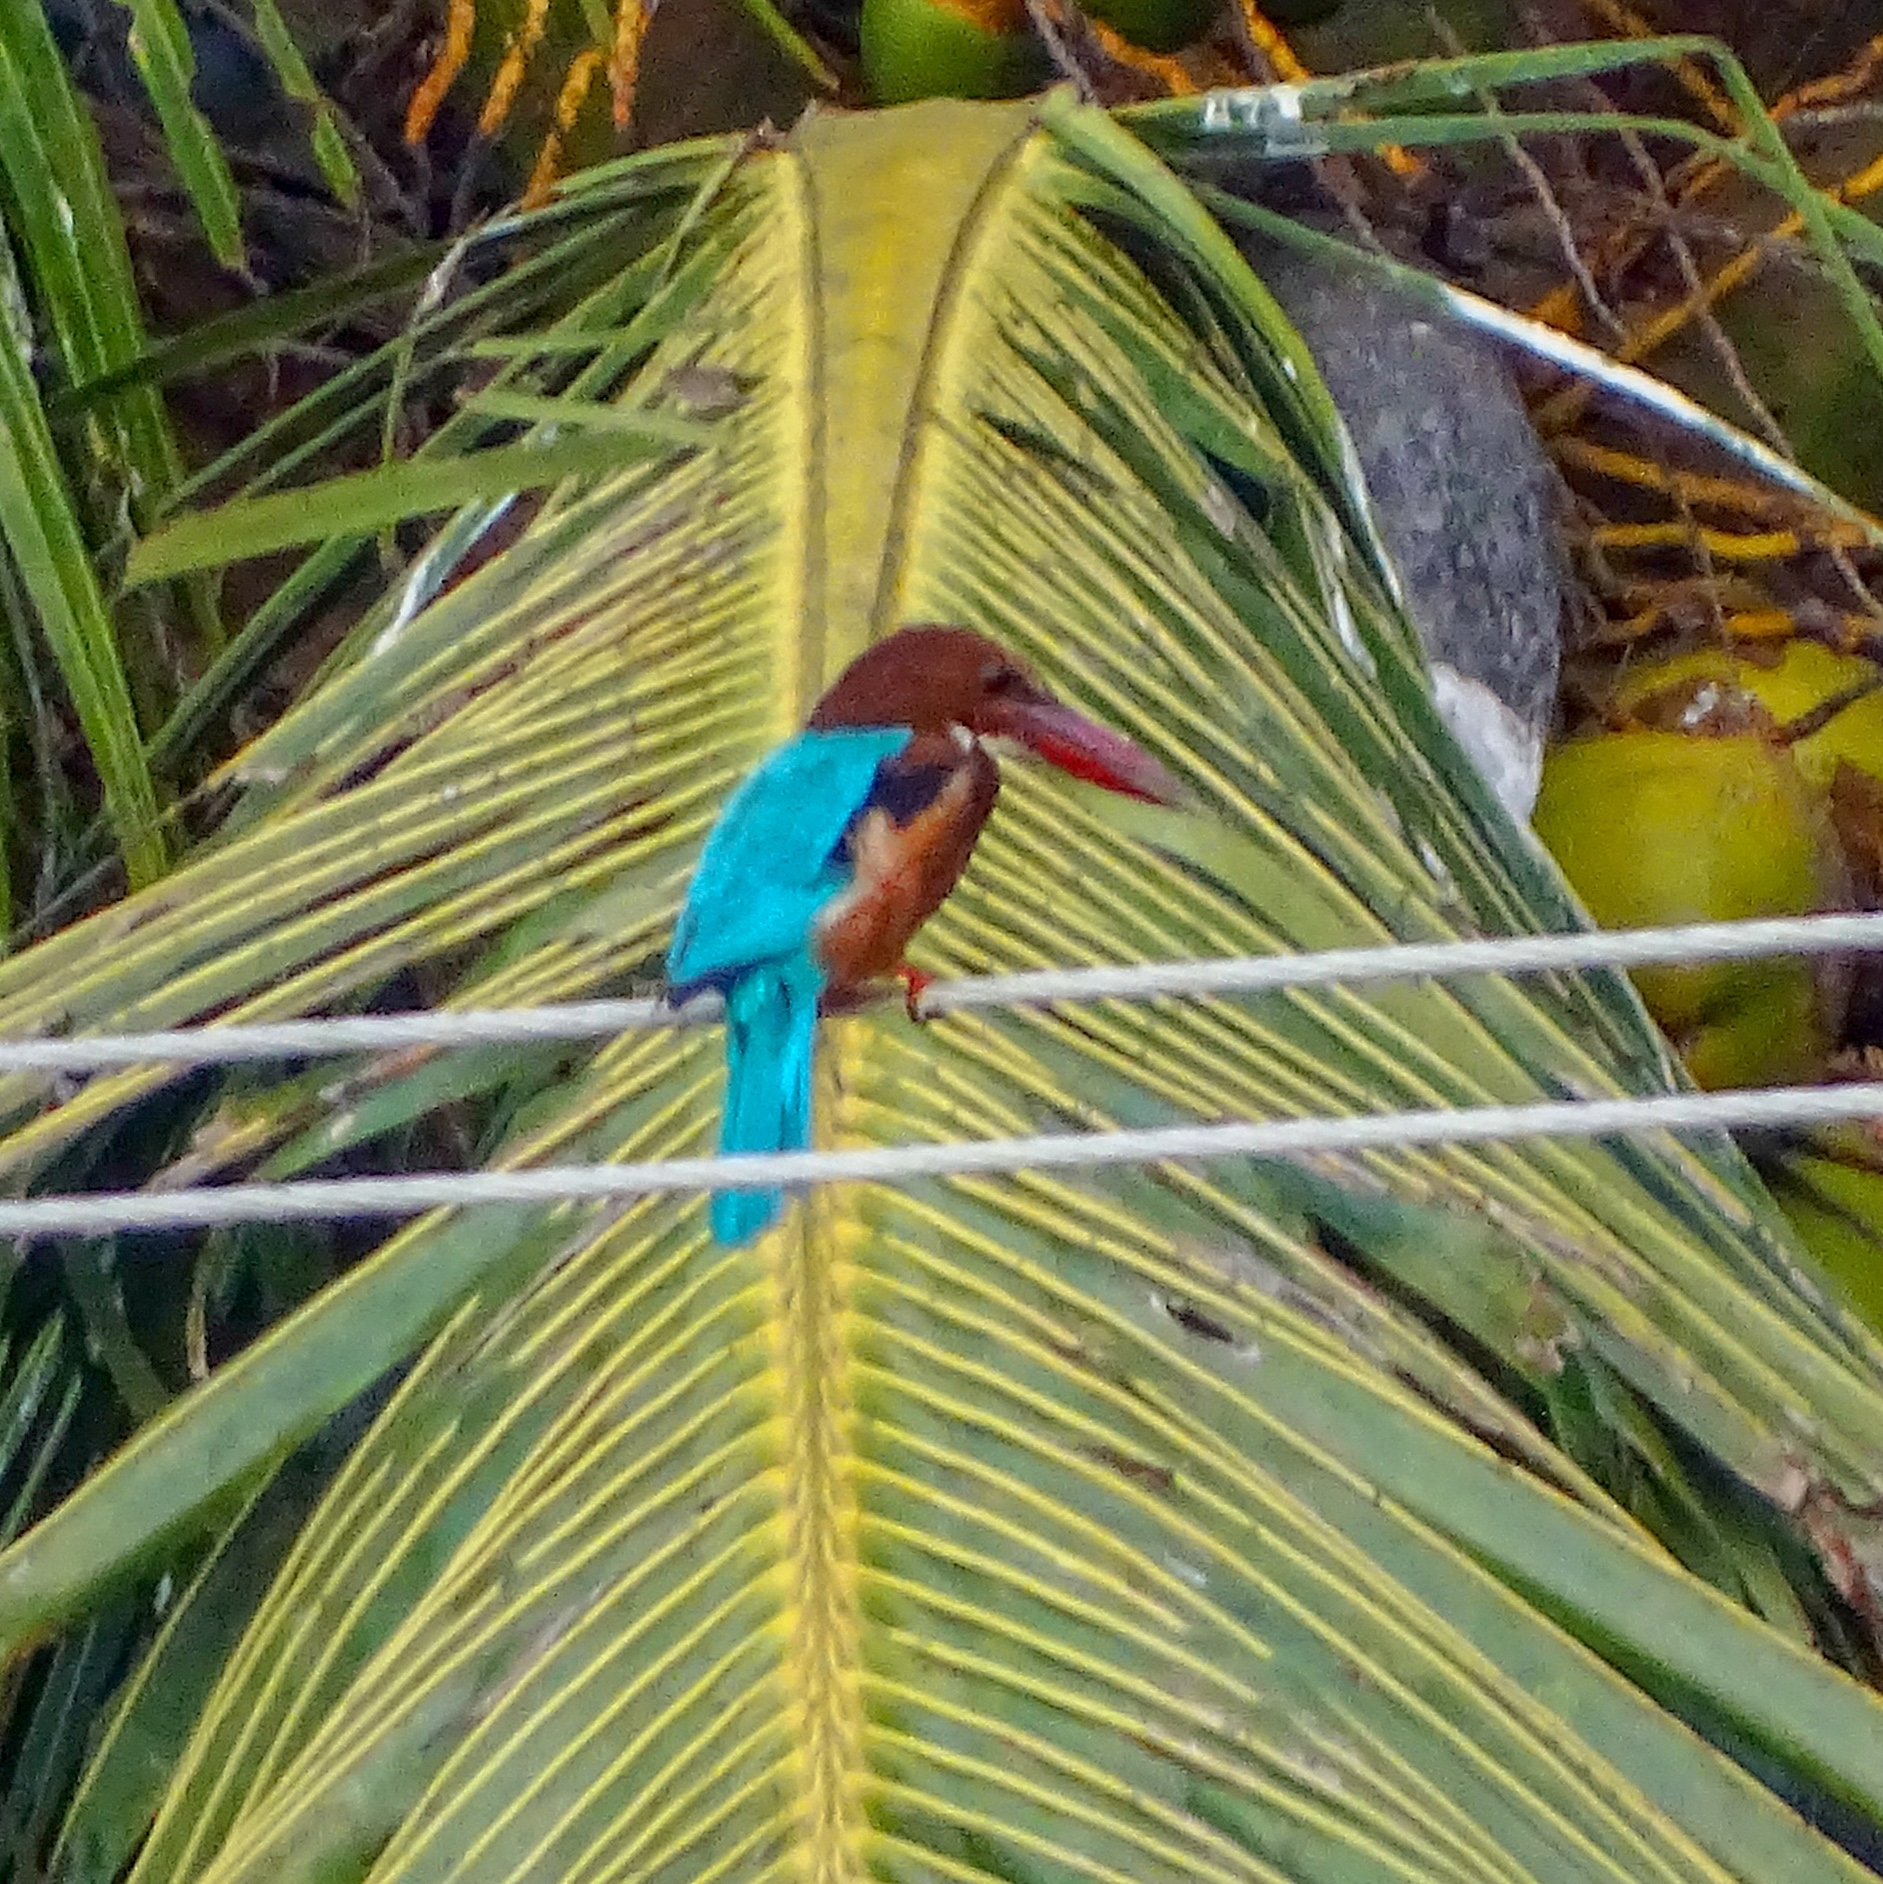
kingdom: Animalia
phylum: Chordata
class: Aves
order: Coraciiformes
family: Alcedinidae
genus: Halcyon
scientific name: Halcyon smyrnensis
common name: White-throated kingfisher
